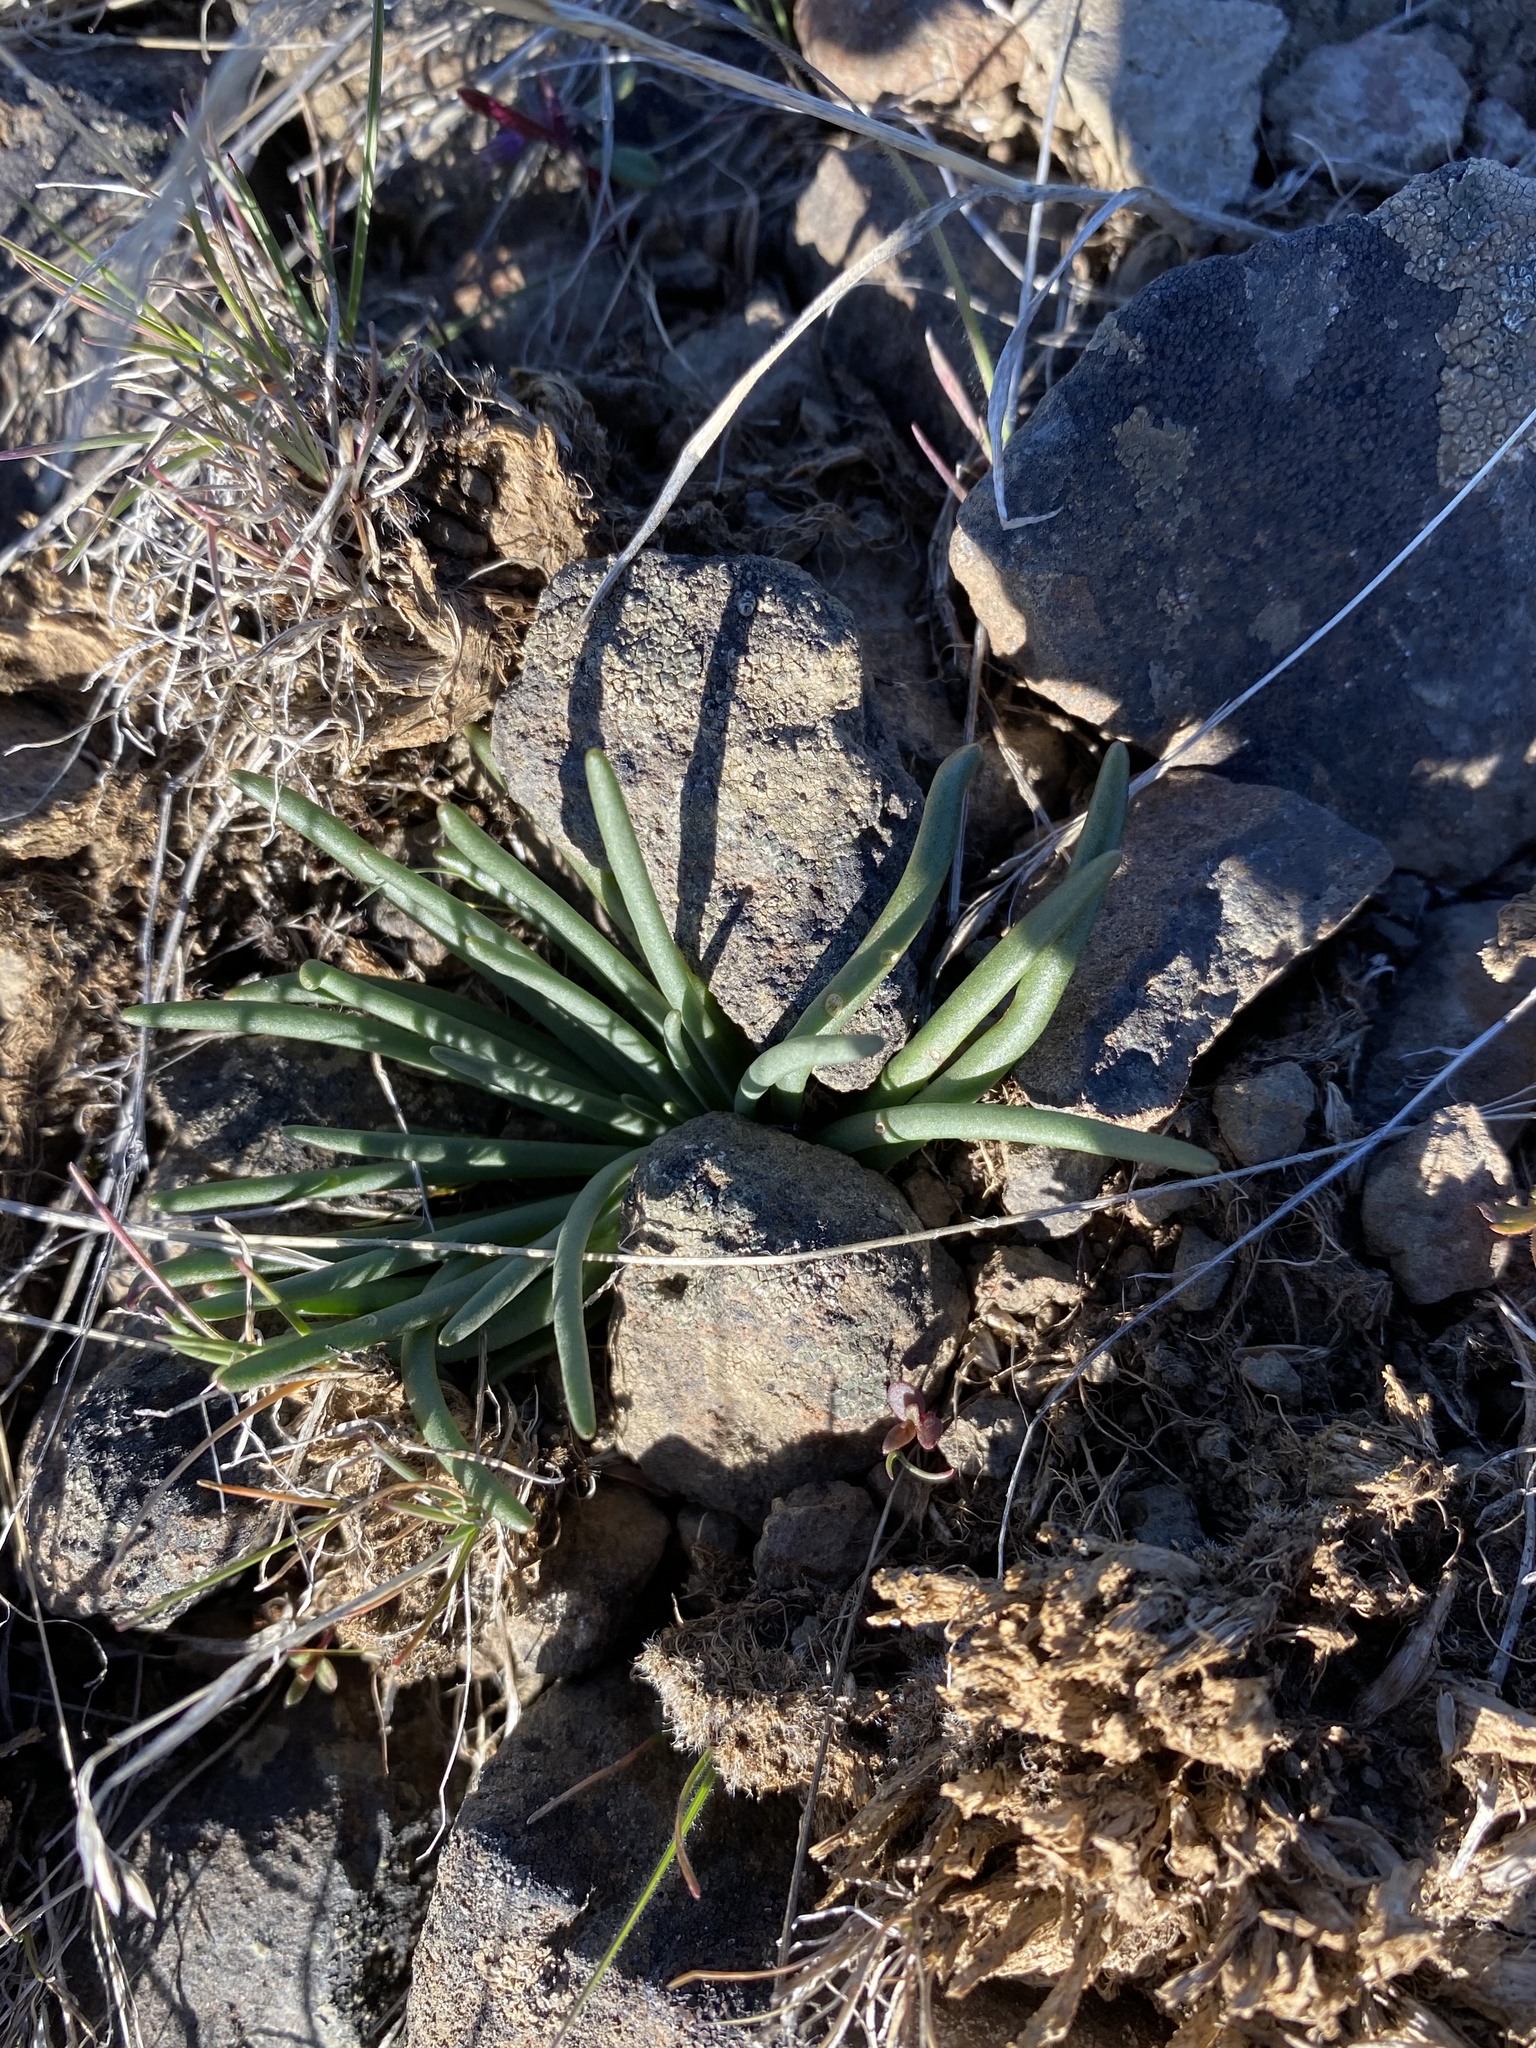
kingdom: Plantae
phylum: Tracheophyta
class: Magnoliopsida
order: Caryophyllales
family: Montiaceae
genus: Lewisia
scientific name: Lewisia rediviva
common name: Bitter-root
